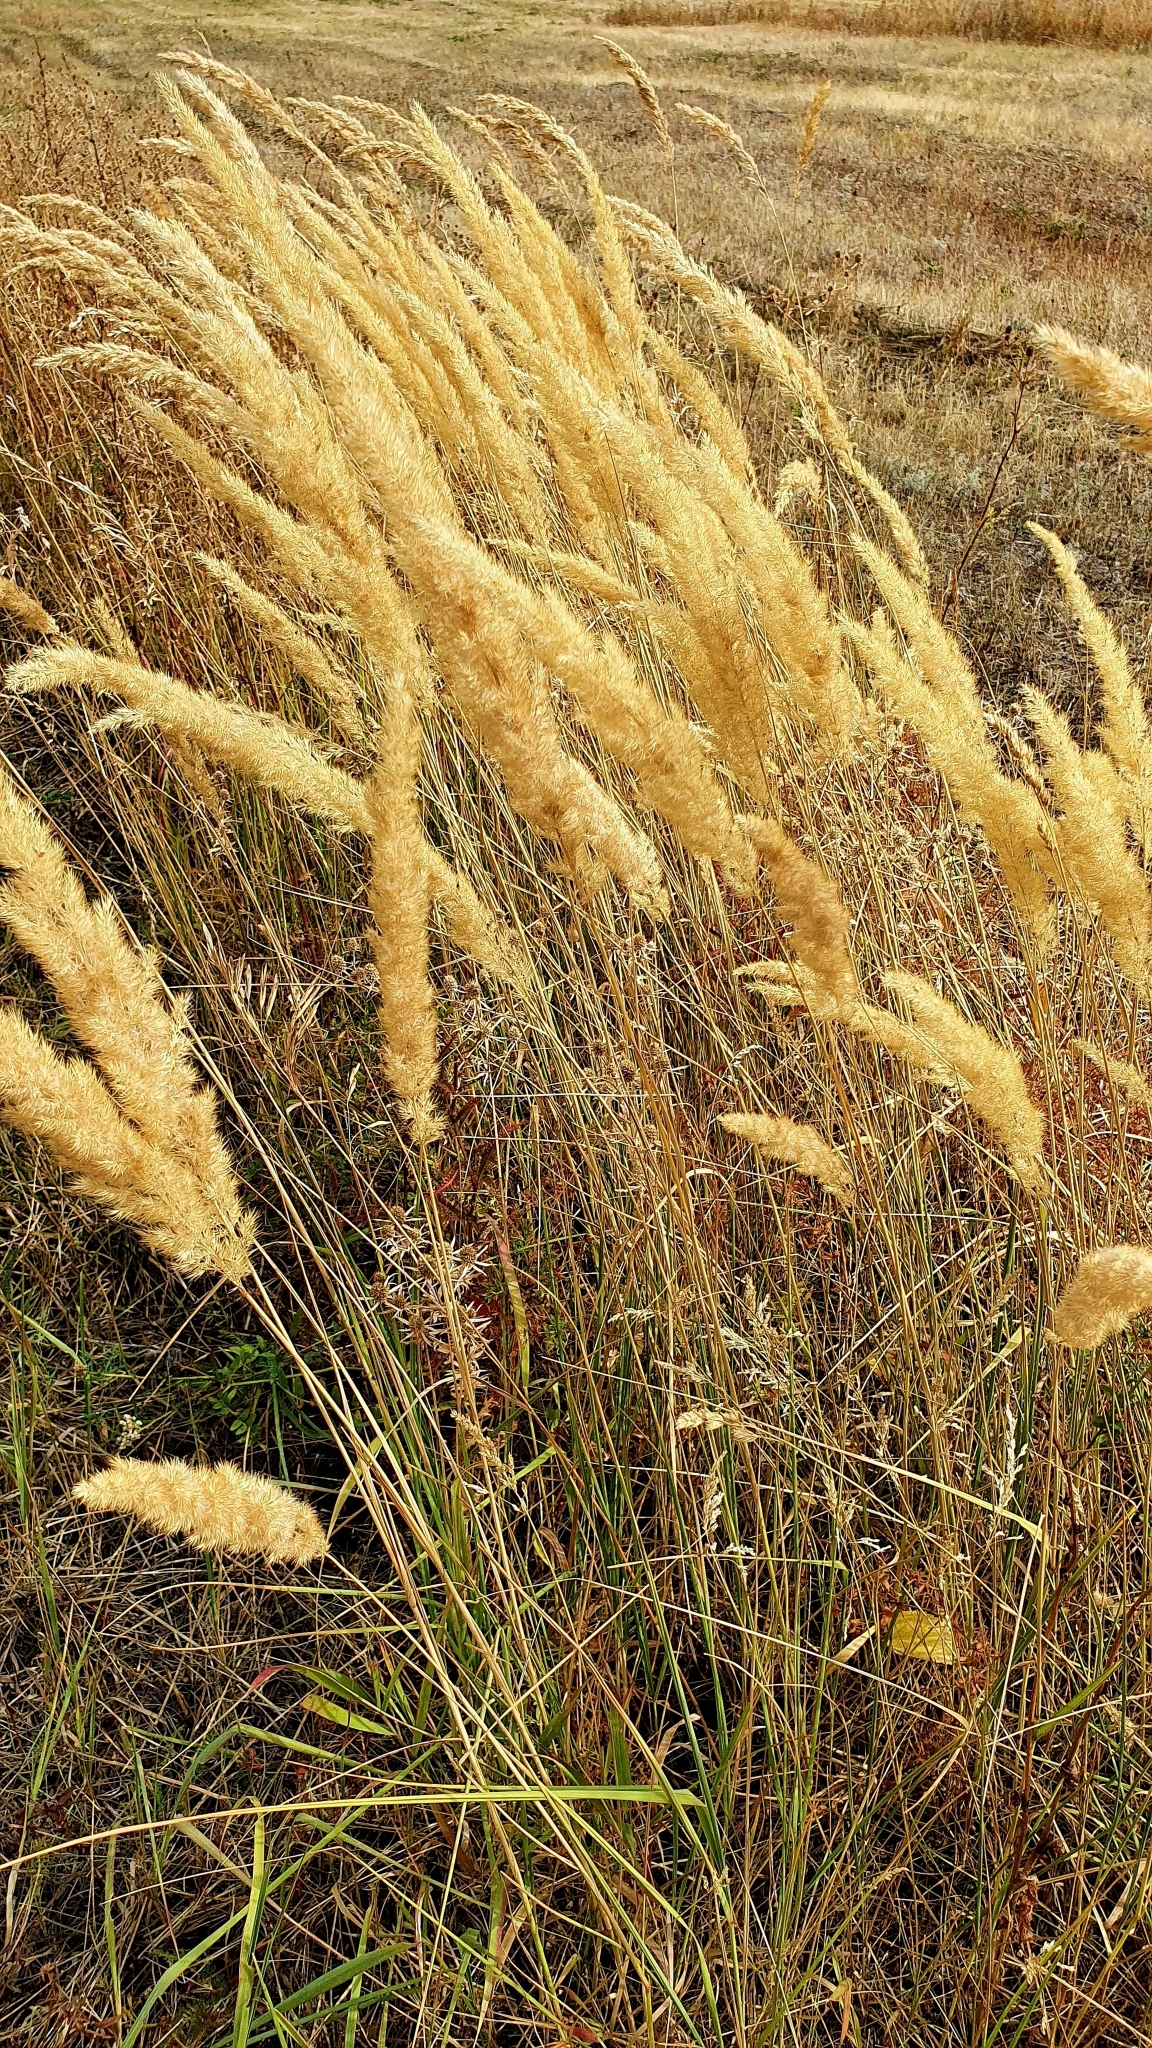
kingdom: Plantae
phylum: Tracheophyta
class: Liliopsida
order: Poales
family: Poaceae
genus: Calamagrostis
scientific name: Calamagrostis epigejos
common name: Wood small-reed
